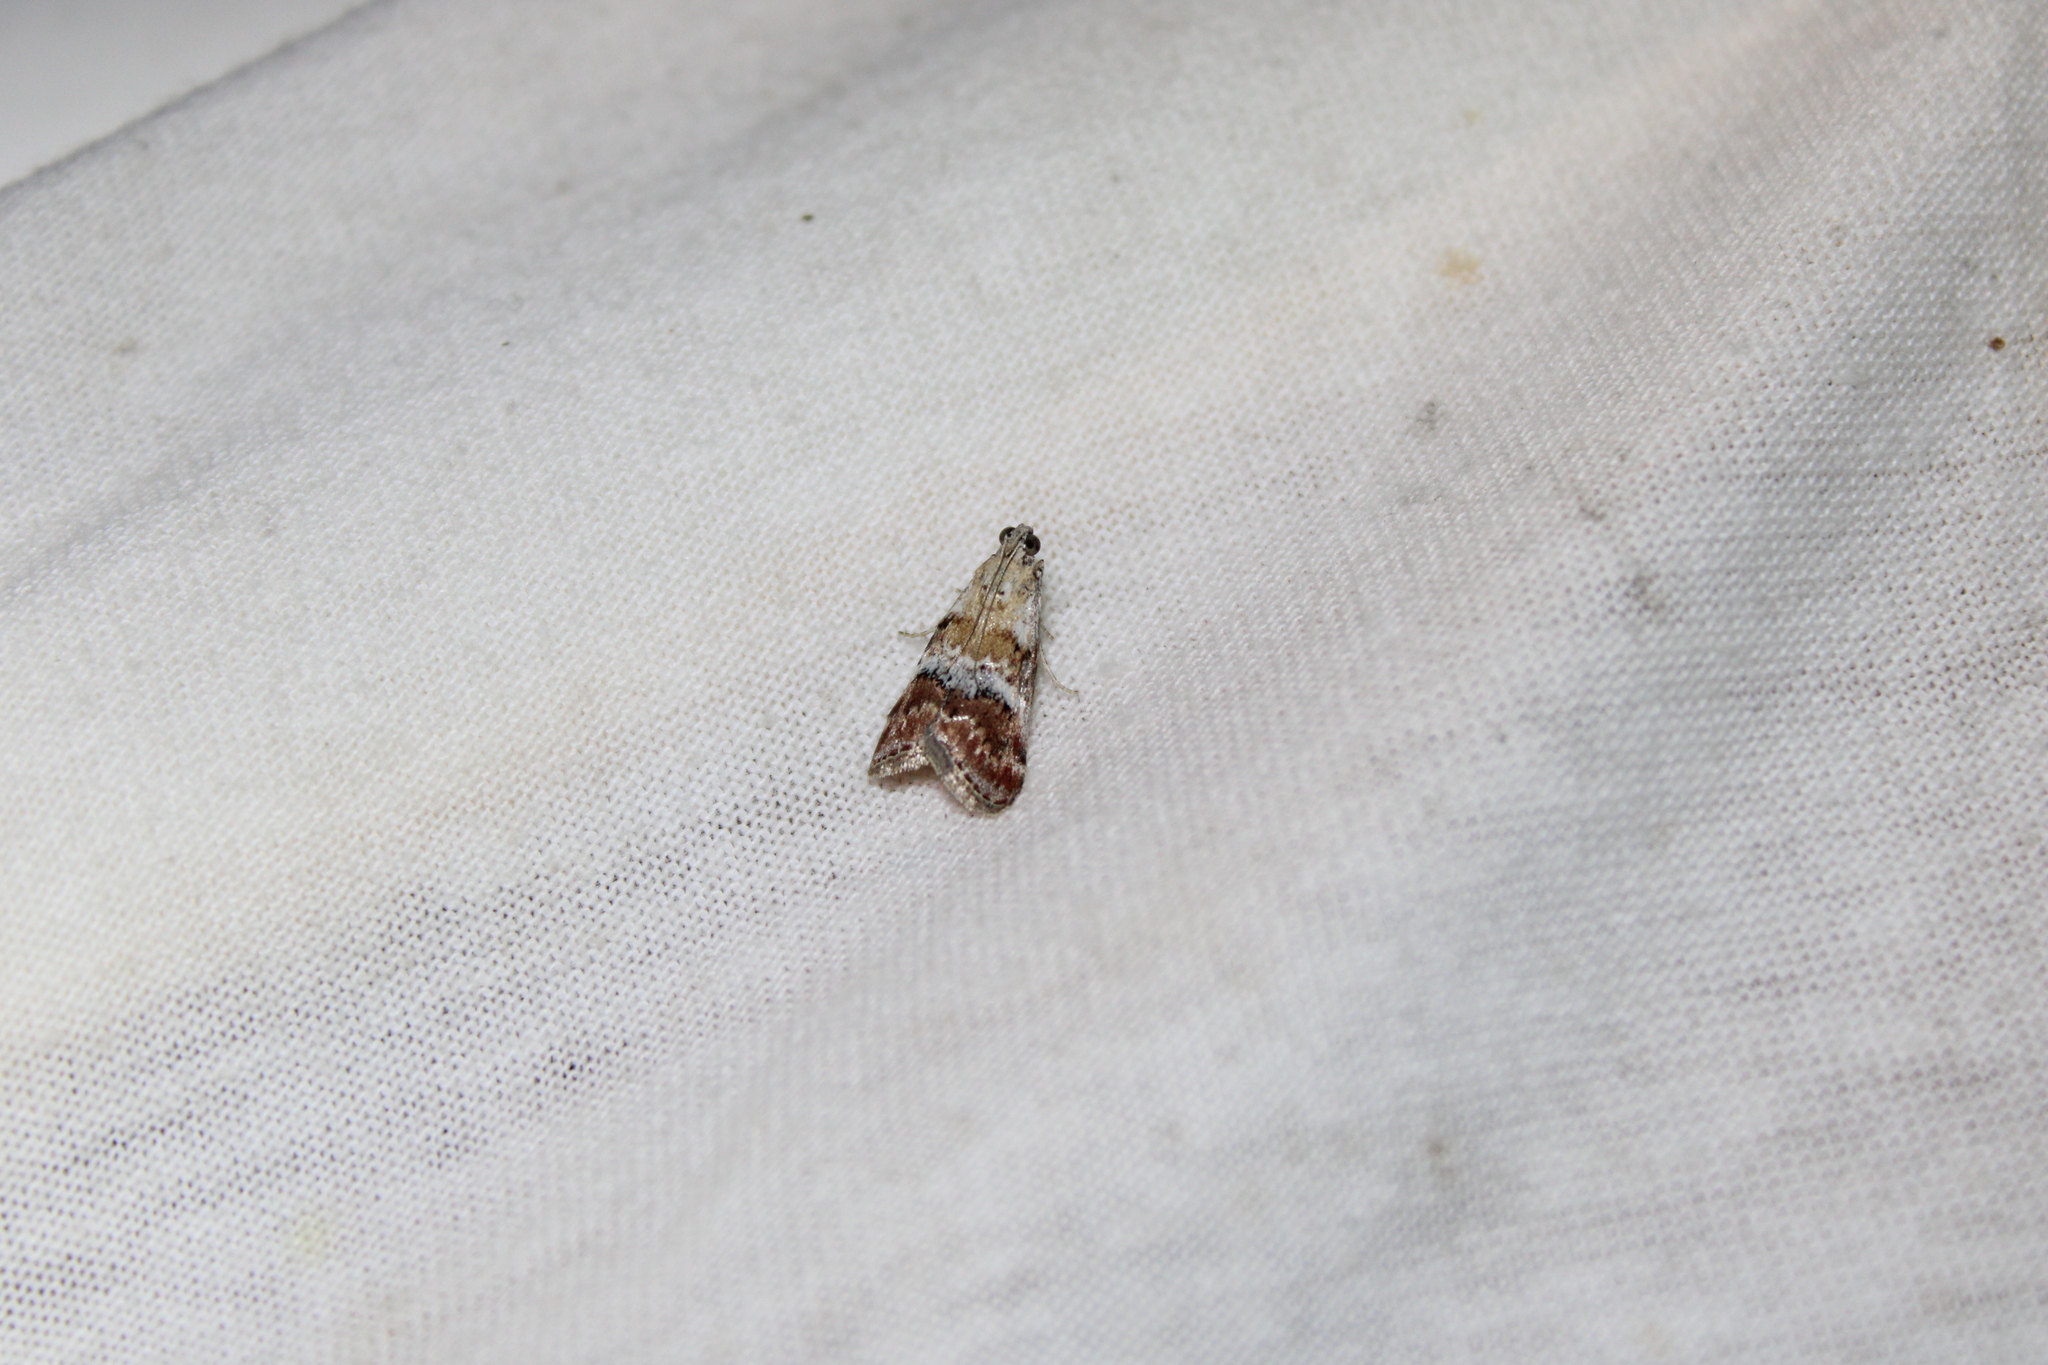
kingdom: Animalia
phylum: Arthropoda
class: Insecta
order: Lepidoptera
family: Pyralidae
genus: Pococera
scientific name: Pococera baptisiella
